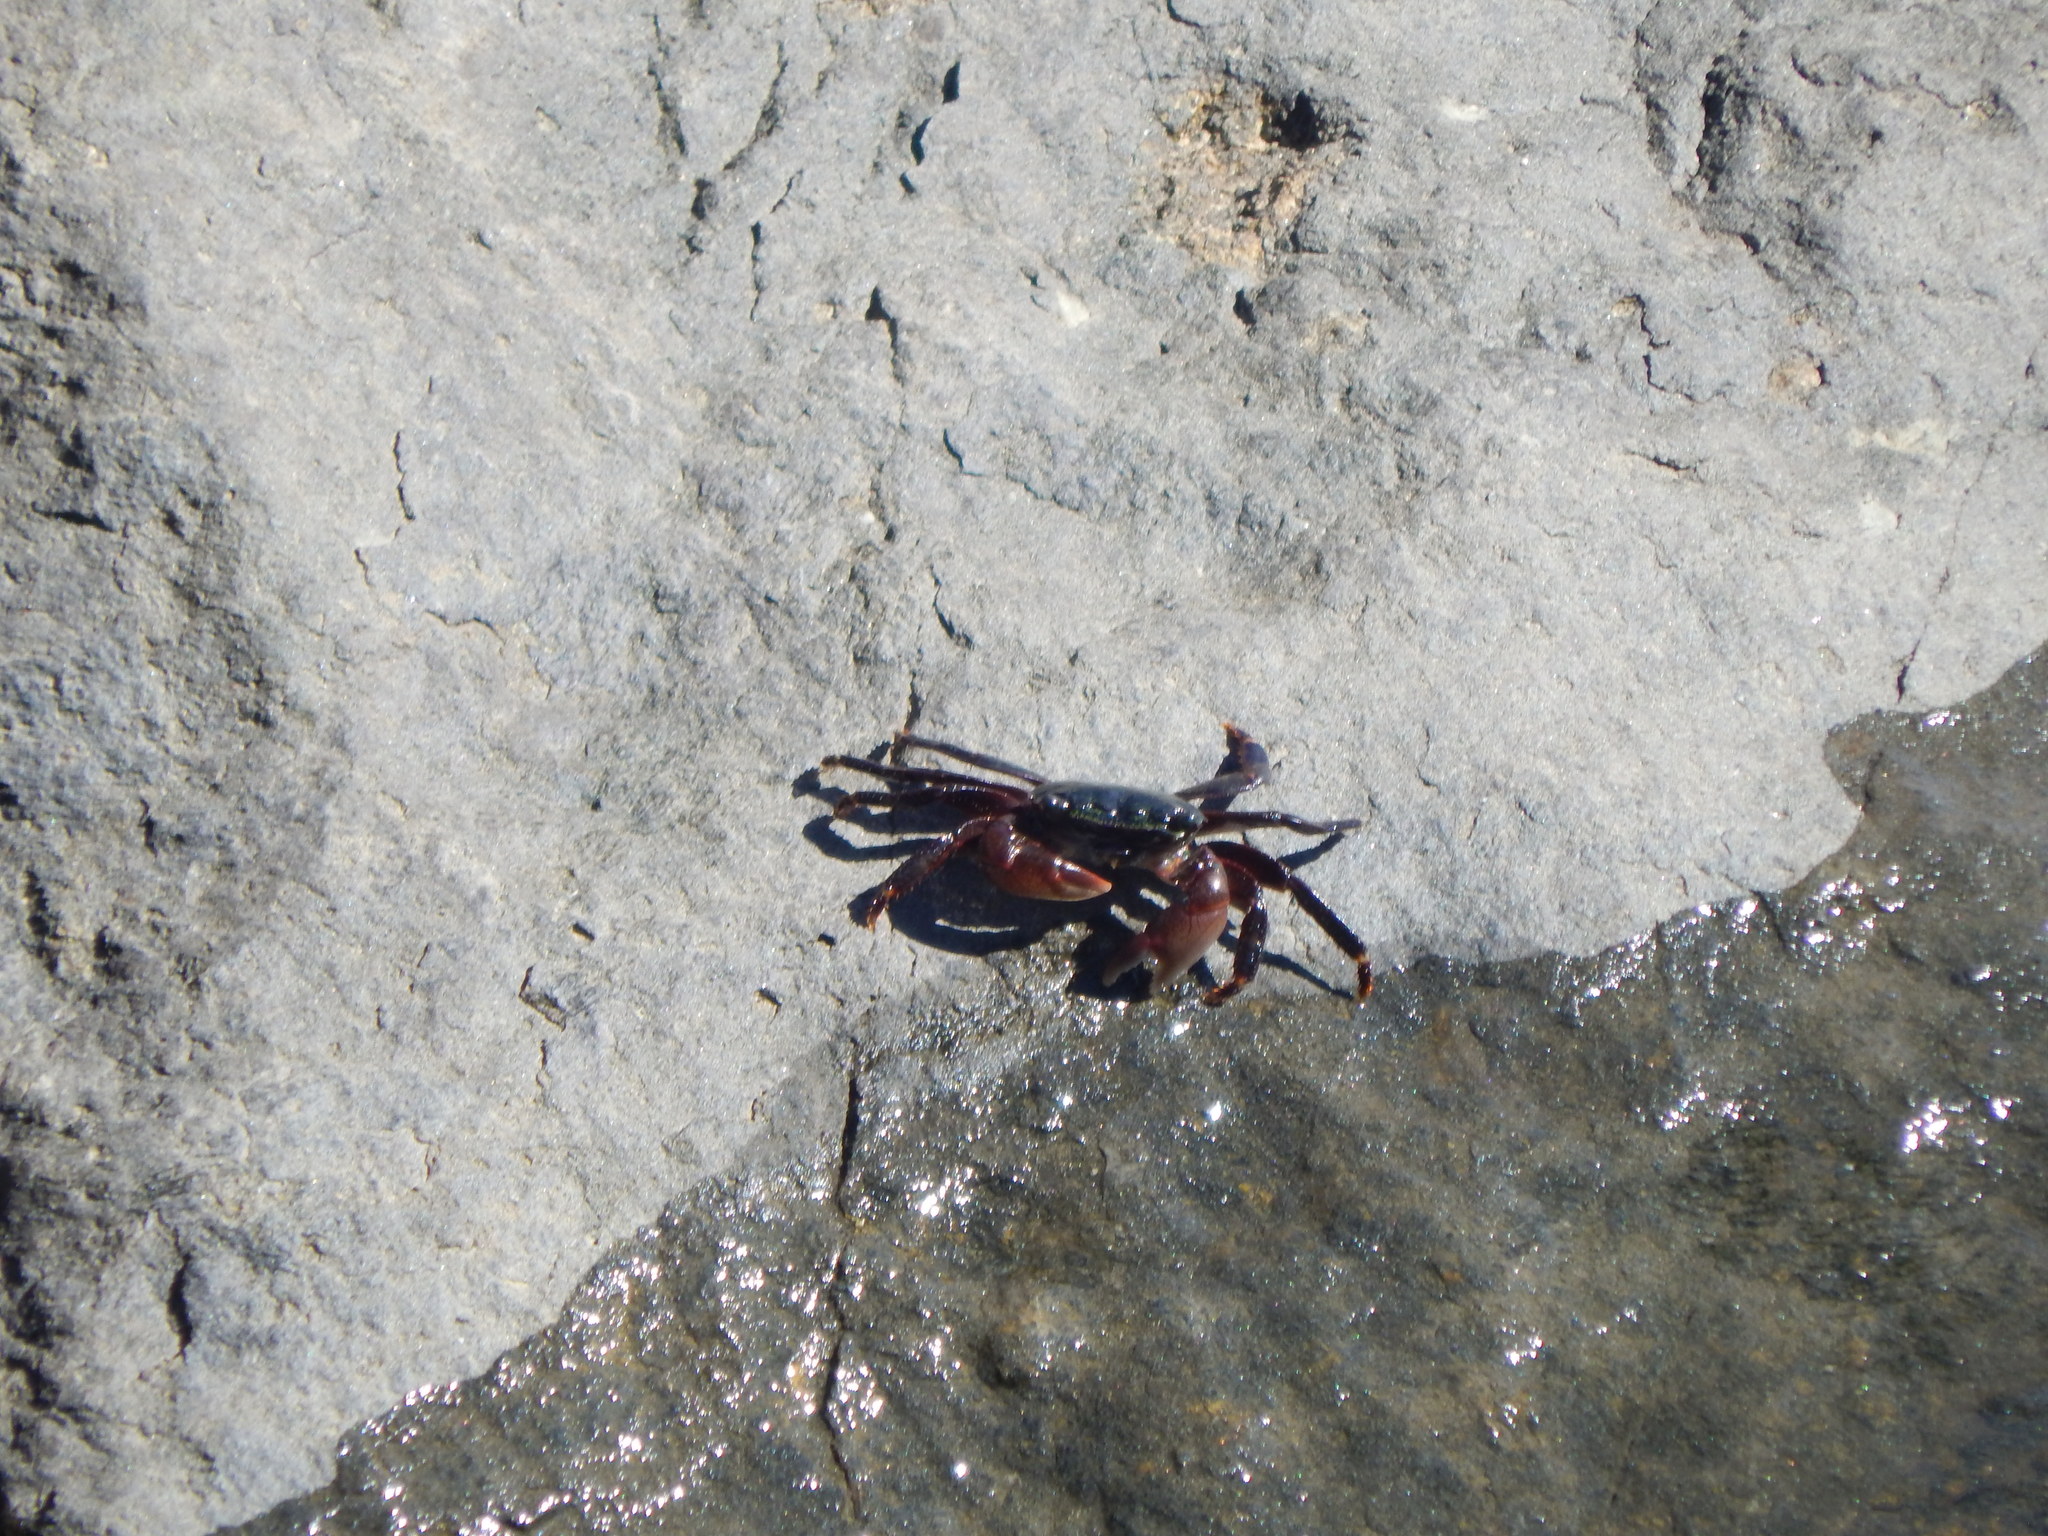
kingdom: Animalia
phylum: Arthropoda
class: Malacostraca
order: Decapoda
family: Grapsidae
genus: Pachygrapsus
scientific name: Pachygrapsus crassipes
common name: Striped shore crab
